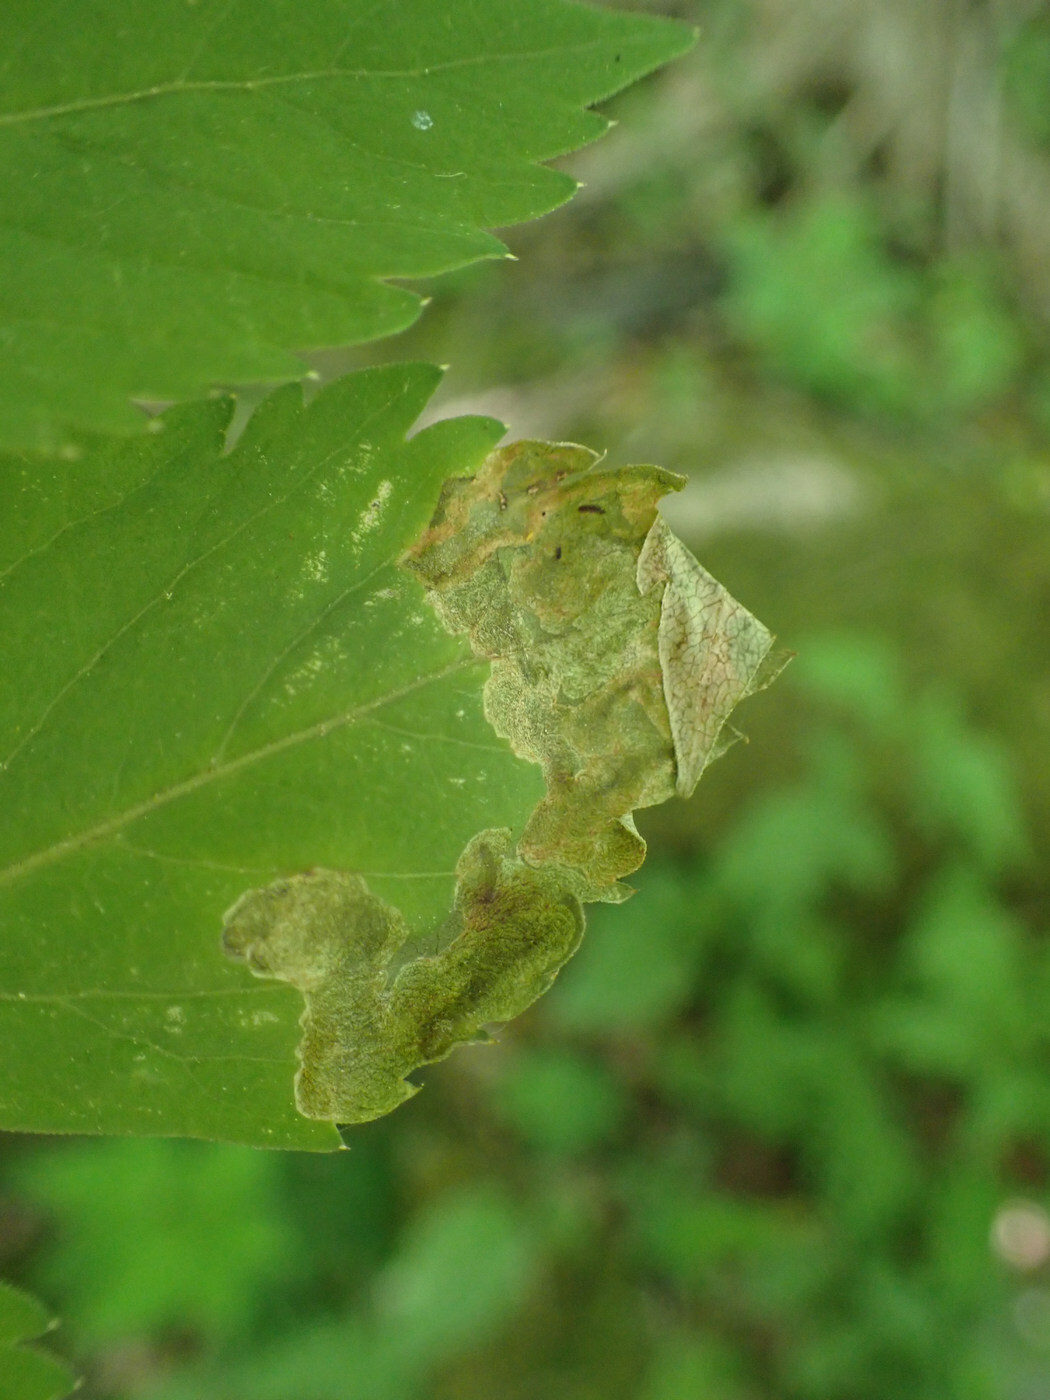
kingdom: Animalia
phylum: Arthropoda
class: Insecta
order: Diptera
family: Tephritidae
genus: Euleia
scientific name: Euleia fratria
